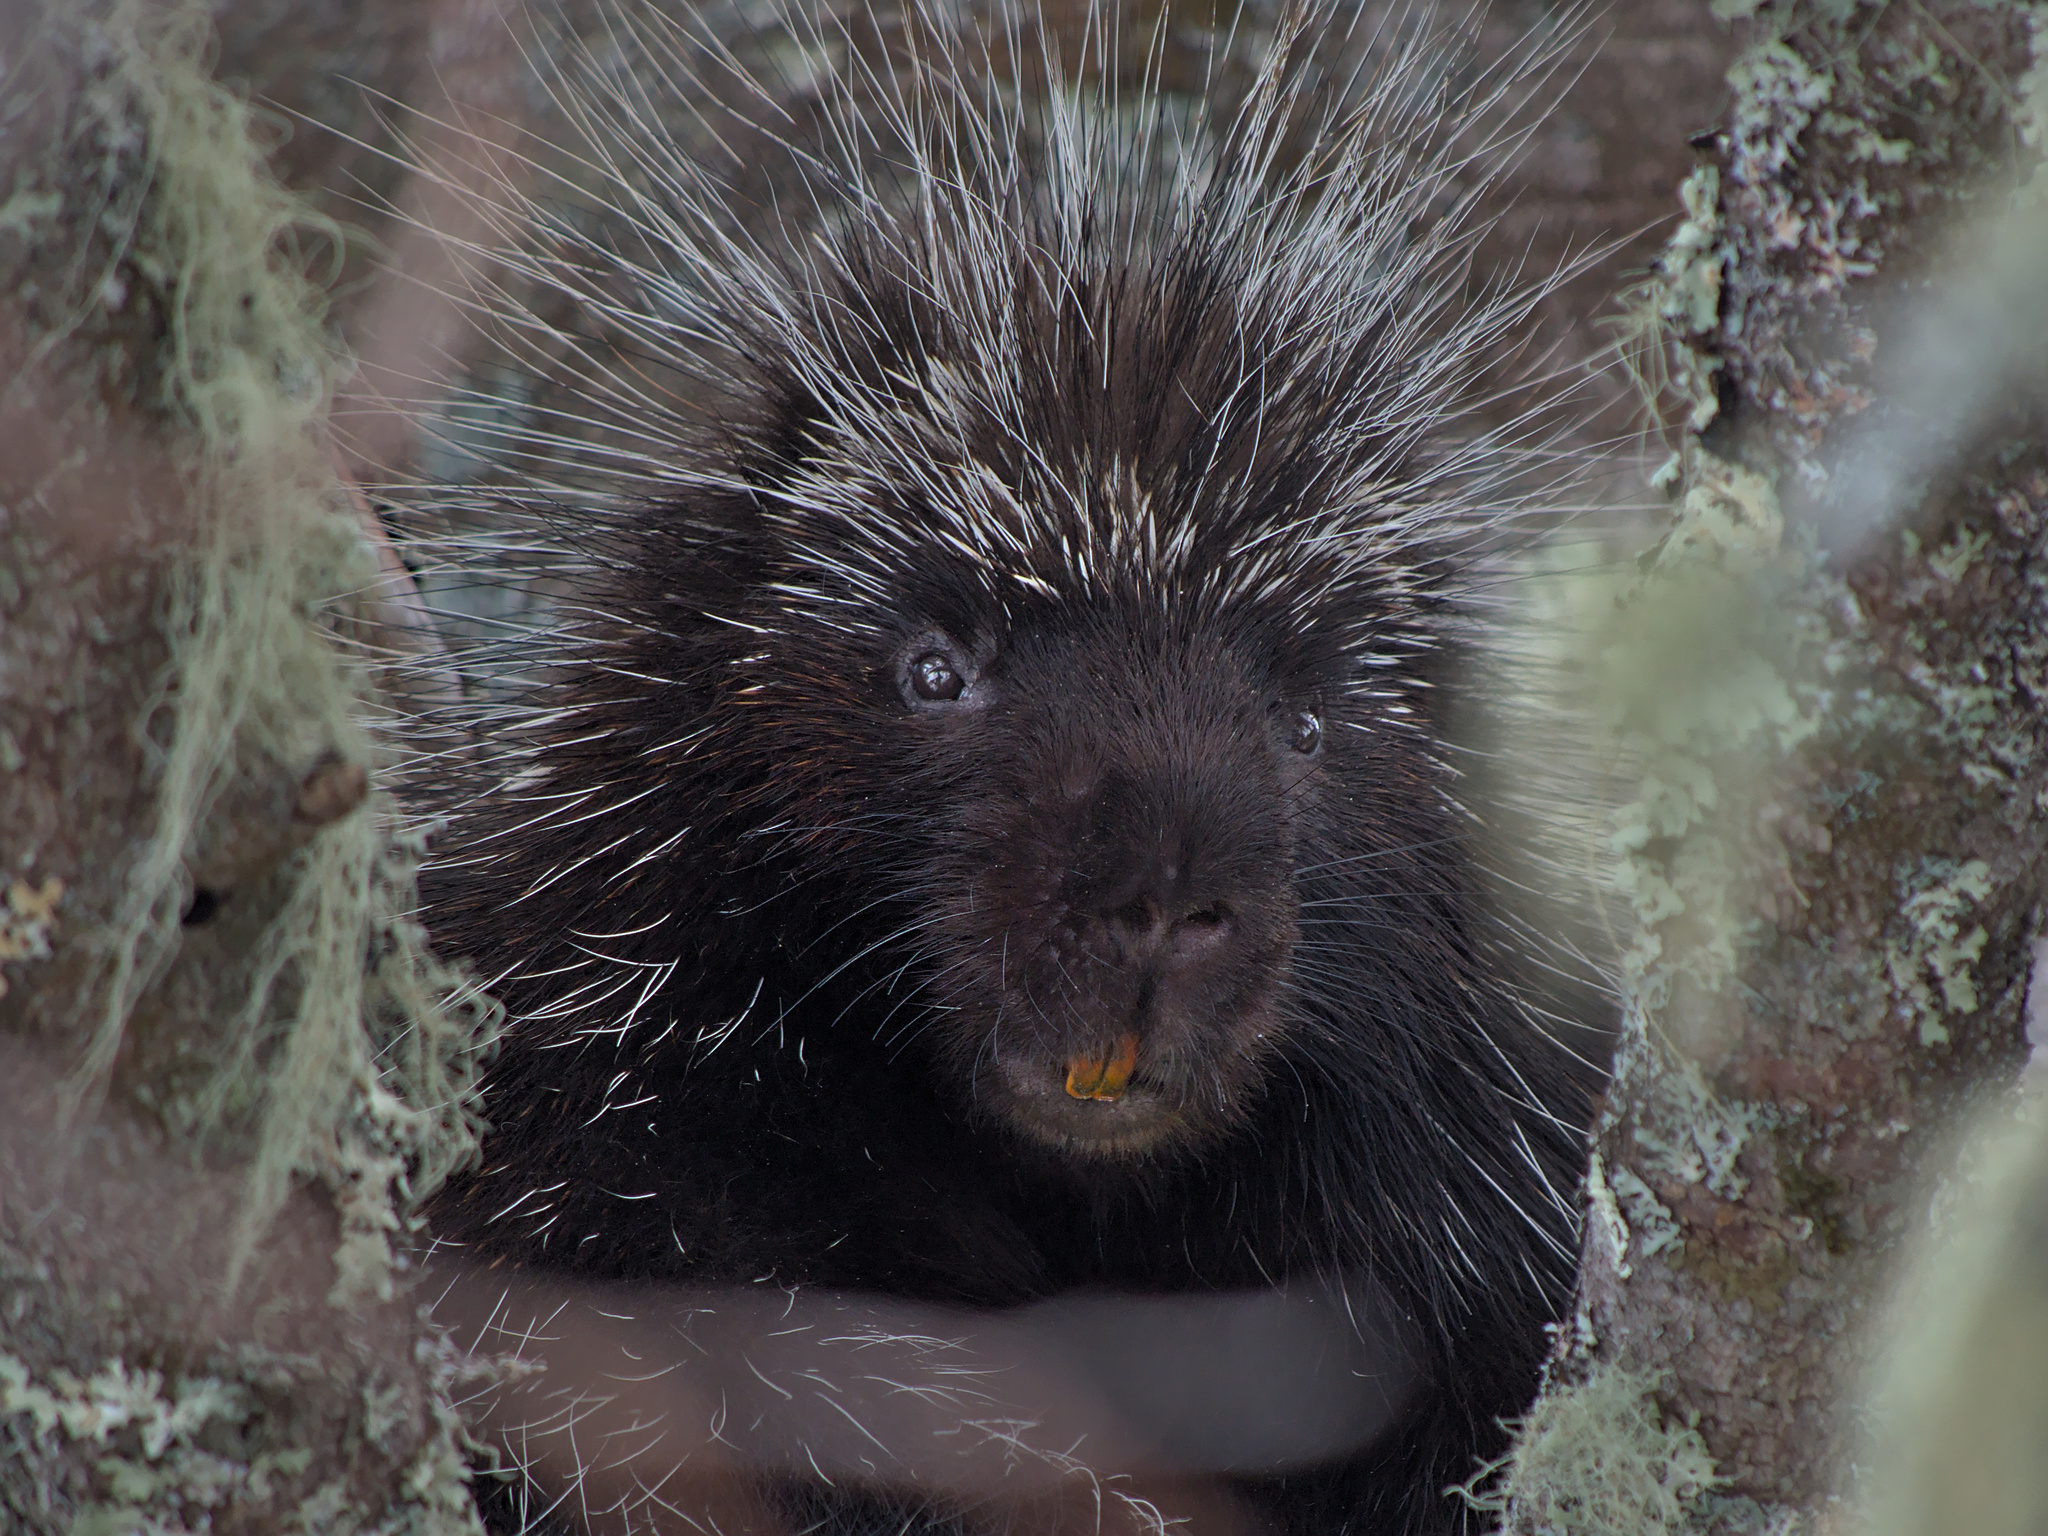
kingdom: Animalia
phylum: Chordata
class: Mammalia
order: Rodentia
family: Erethizontidae
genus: Erethizon
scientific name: Erethizon dorsatus
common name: North american porcupine
